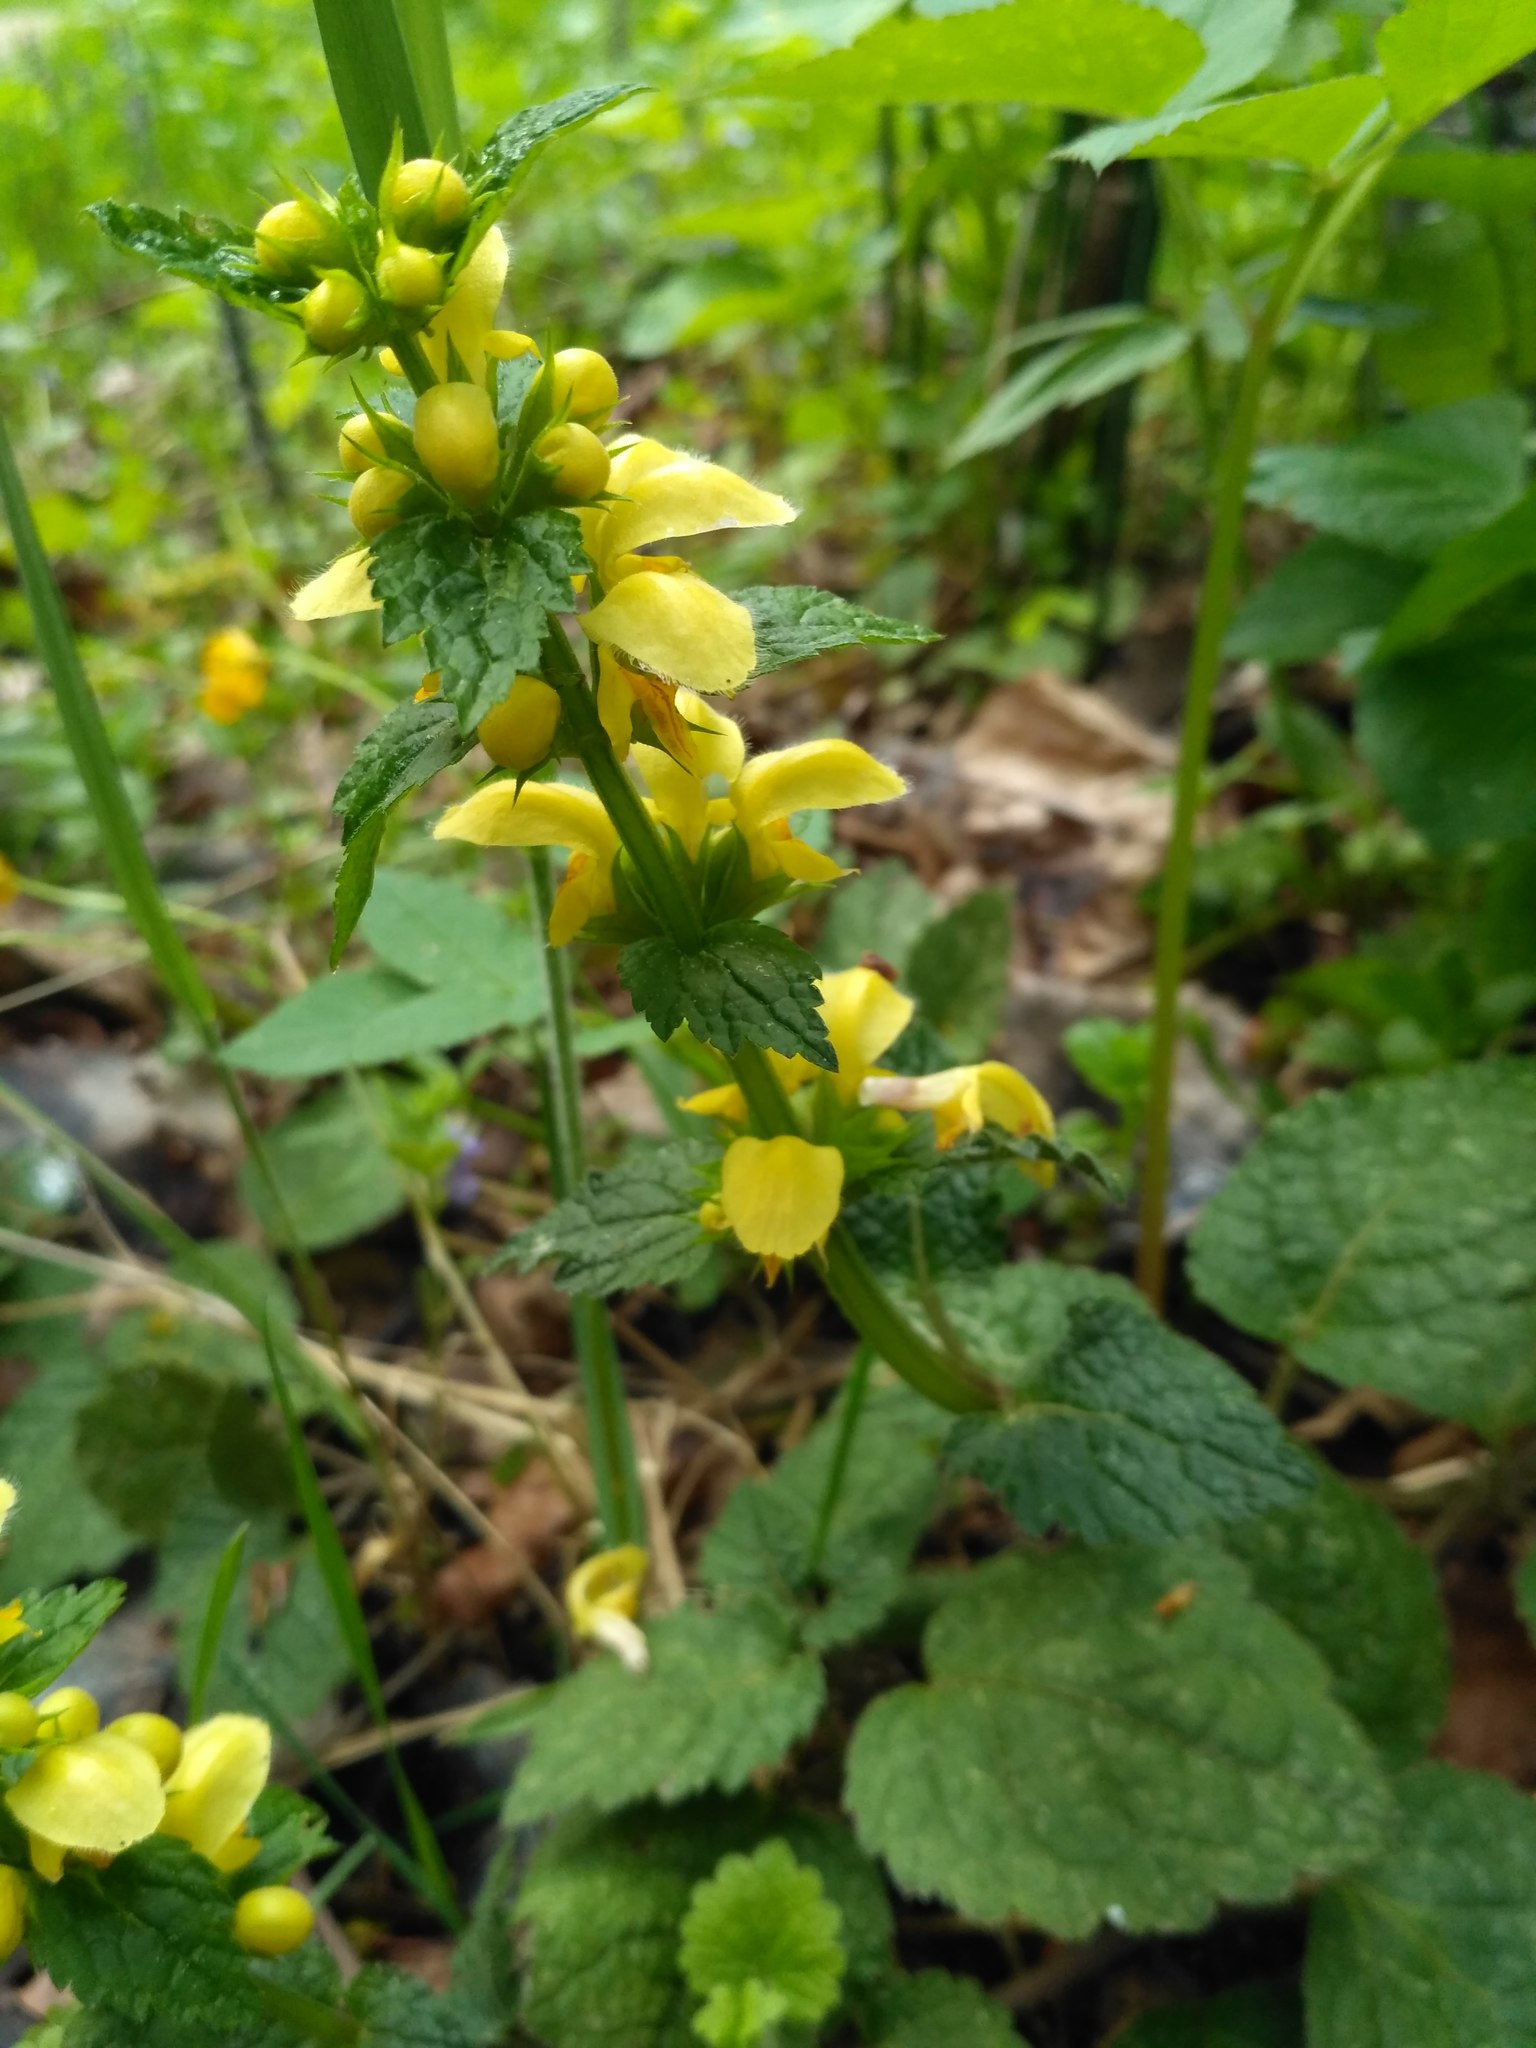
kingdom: Plantae
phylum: Tracheophyta
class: Magnoliopsida
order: Lamiales
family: Lamiaceae
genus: Lamium
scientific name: Lamium galeobdolon
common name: Yellow archangel
